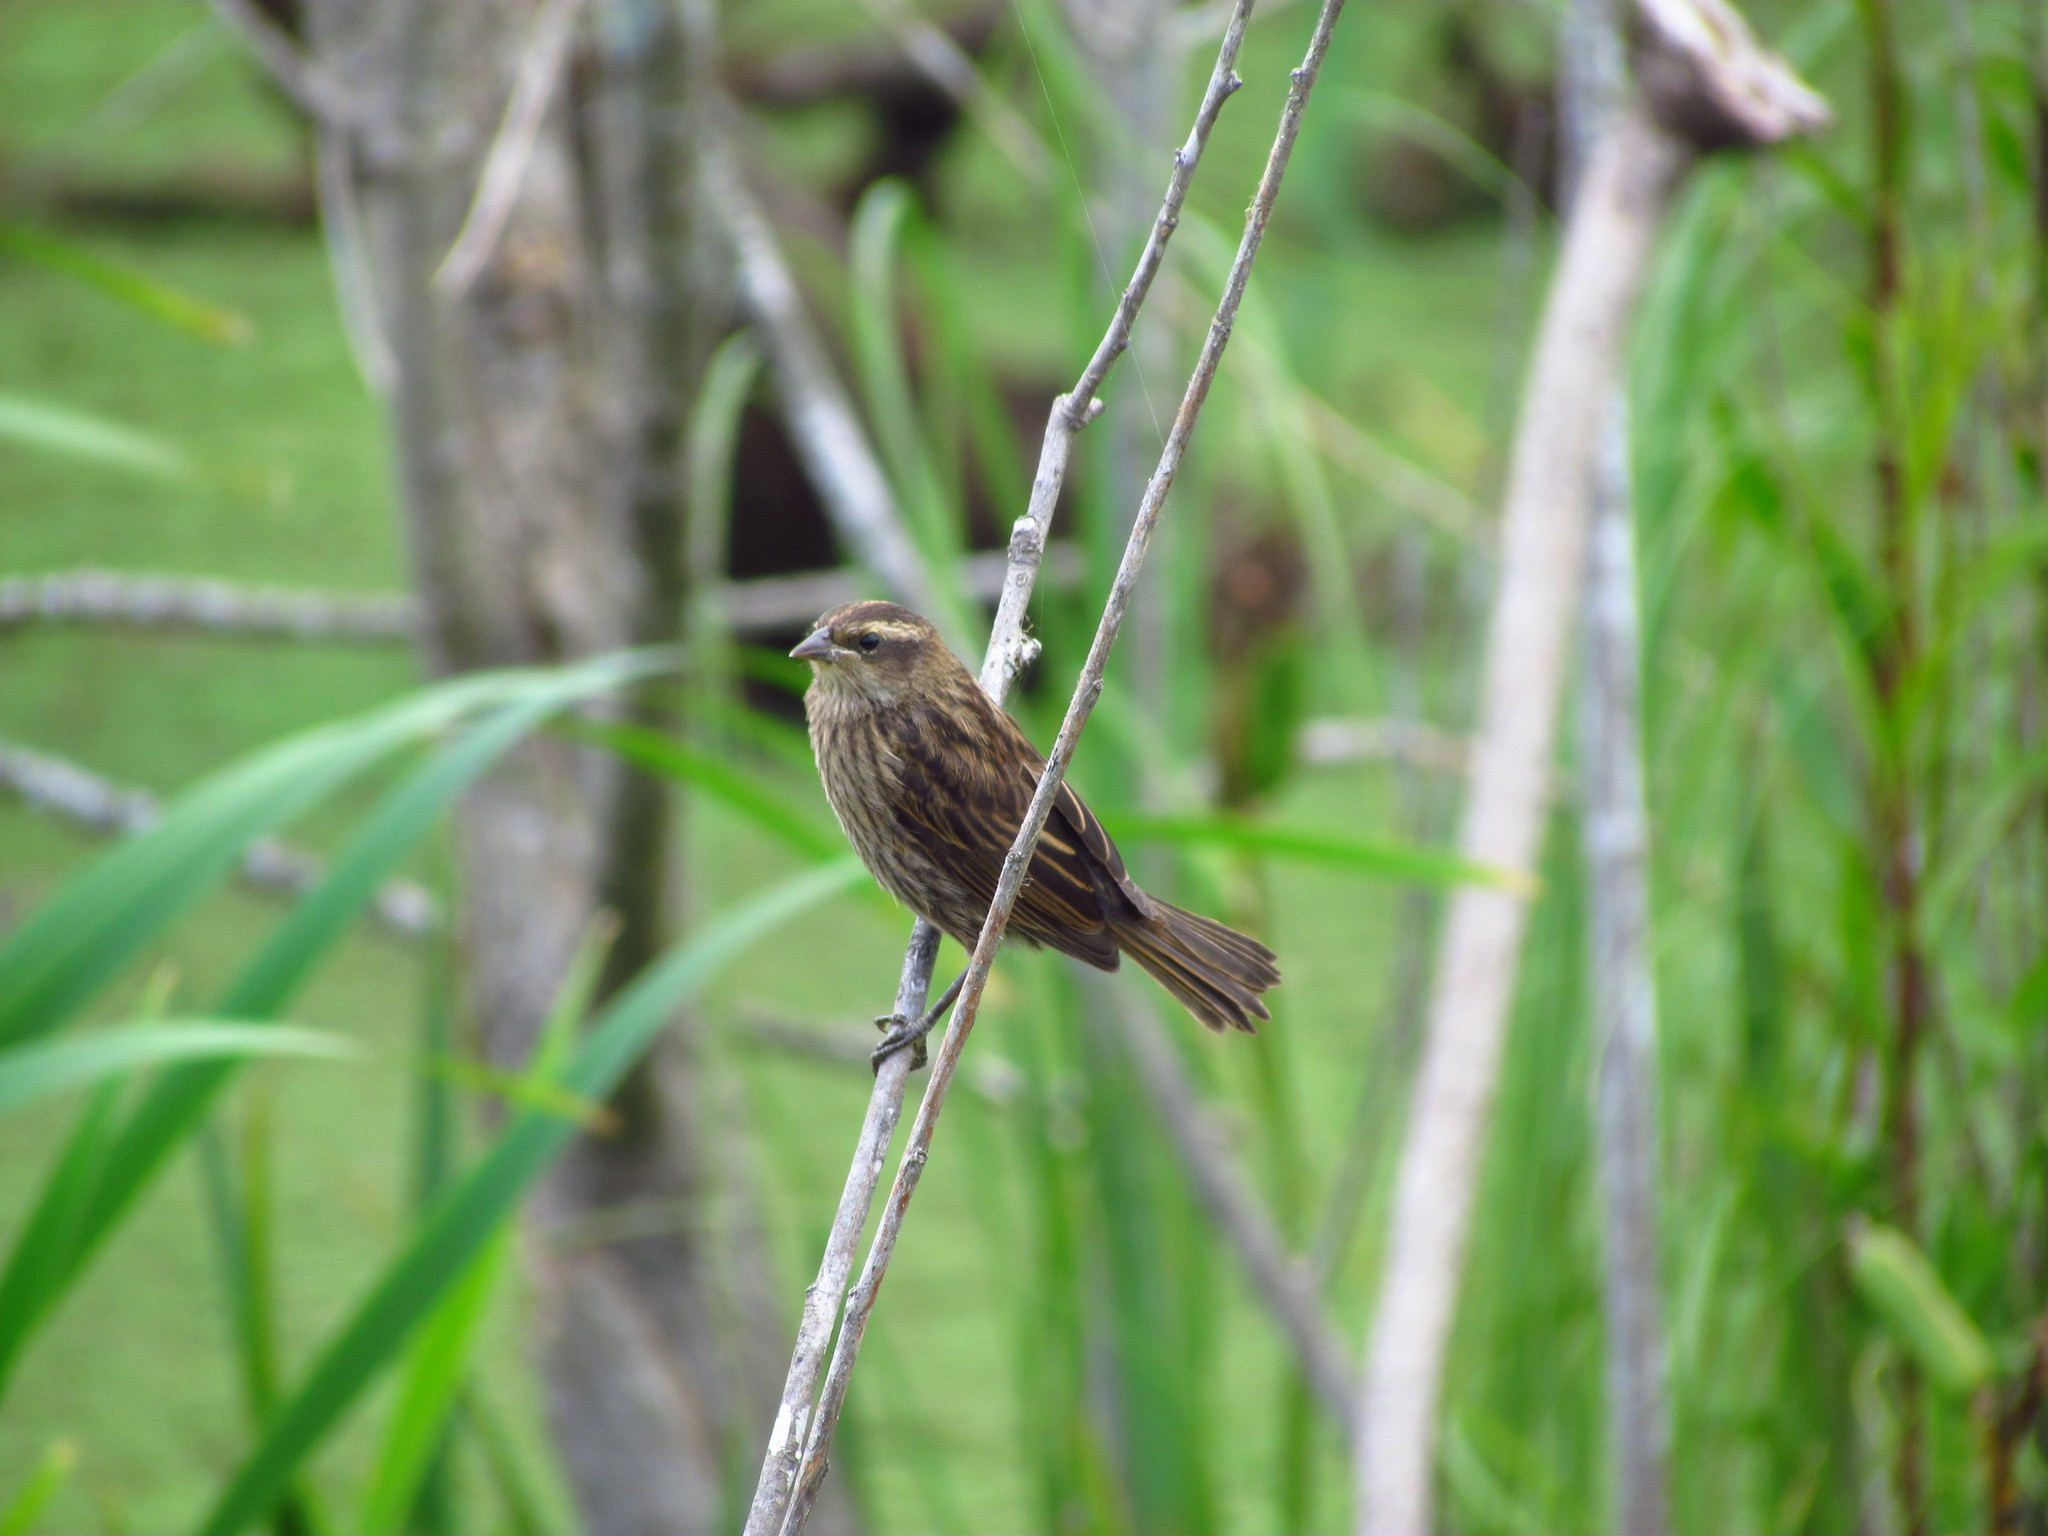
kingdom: Animalia
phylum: Chordata
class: Aves
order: Passeriformes
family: Icteridae
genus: Agelasticus
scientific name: Agelasticus thilius
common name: Yellow-winged blackbird
